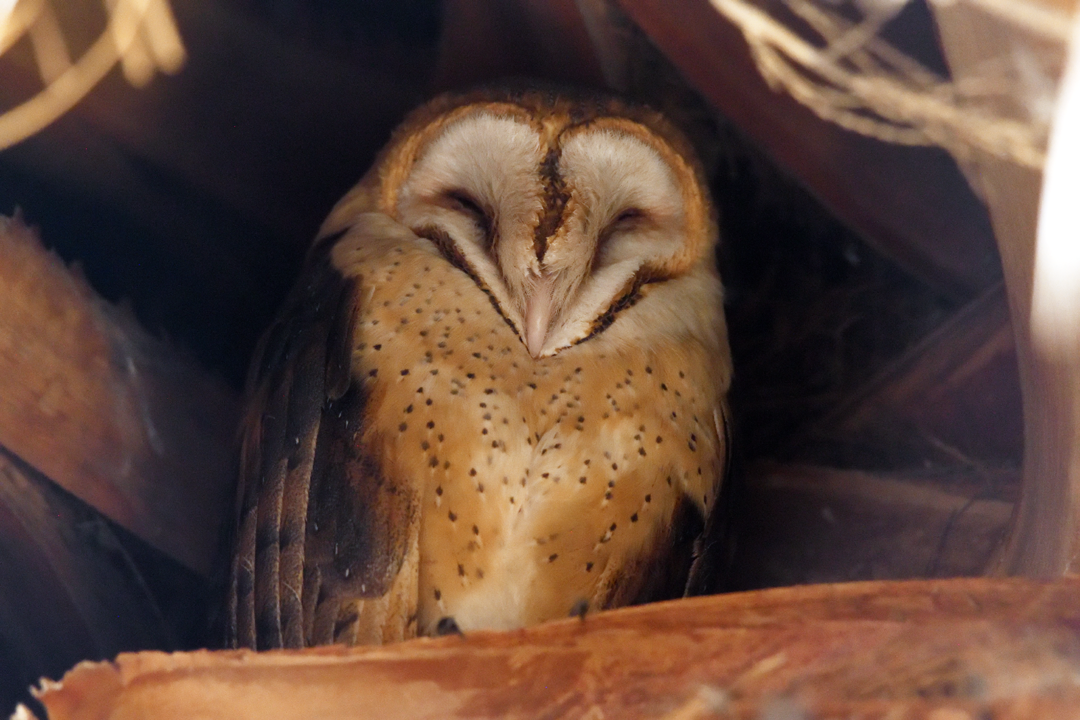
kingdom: Animalia
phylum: Chordata
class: Aves
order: Strigiformes
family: Tytonidae
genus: Tyto
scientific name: Tyto alba
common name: Barn owl
